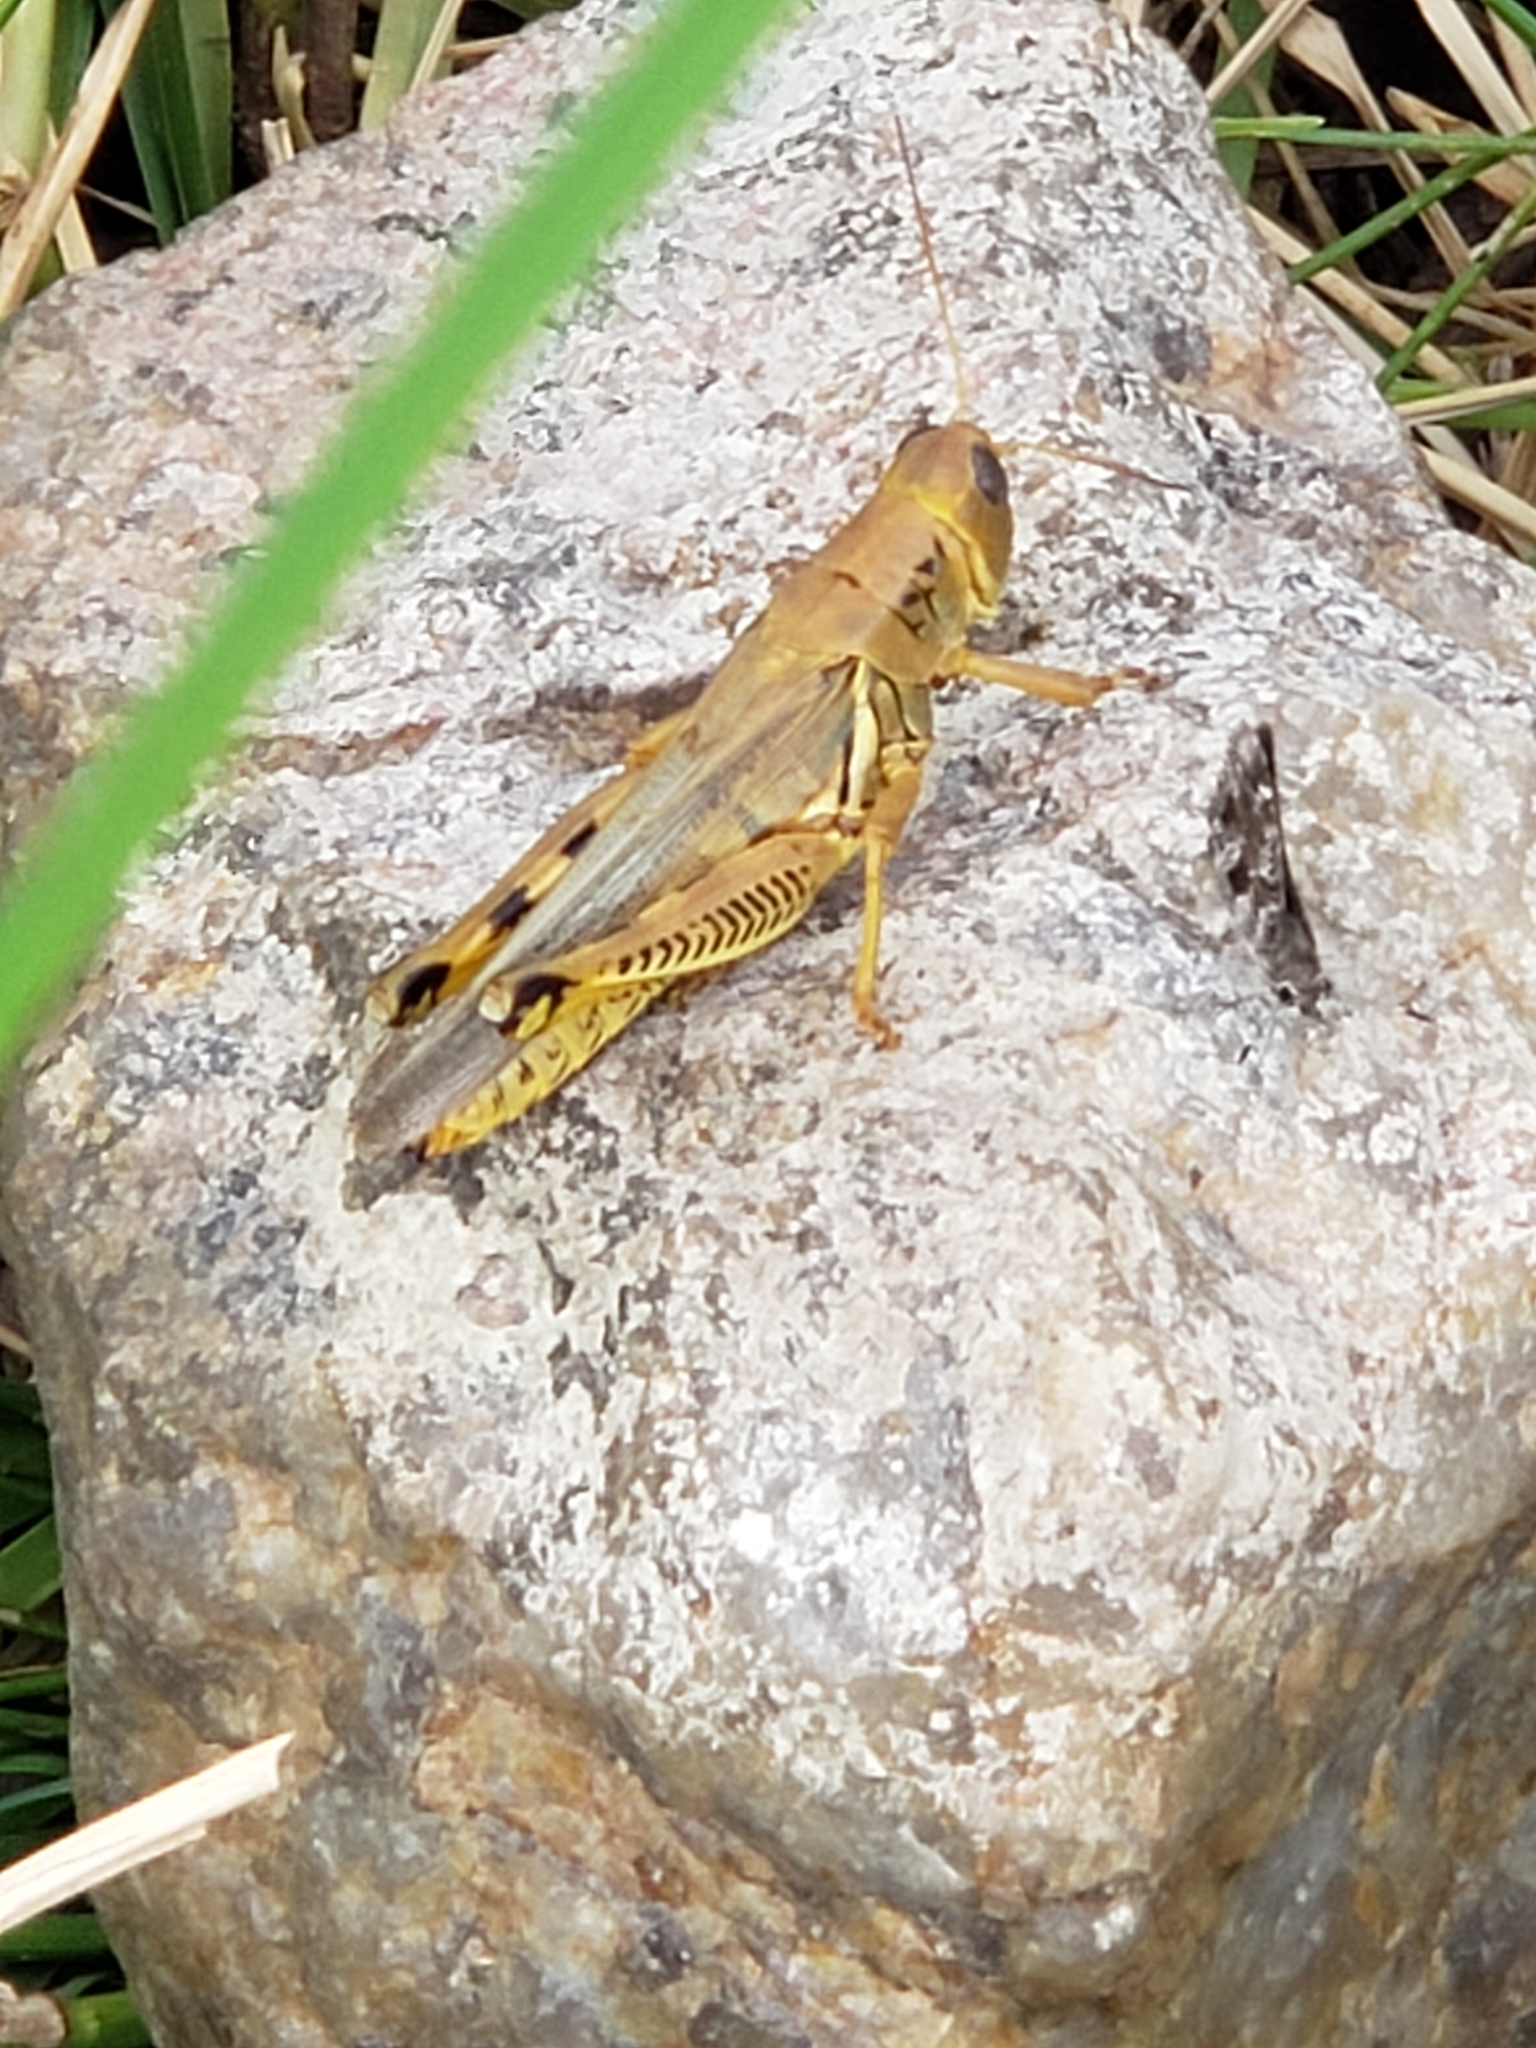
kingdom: Animalia
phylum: Arthropoda
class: Insecta
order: Orthoptera
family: Acrididae
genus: Melanoplus
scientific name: Melanoplus differentialis
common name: Differential grasshopper
